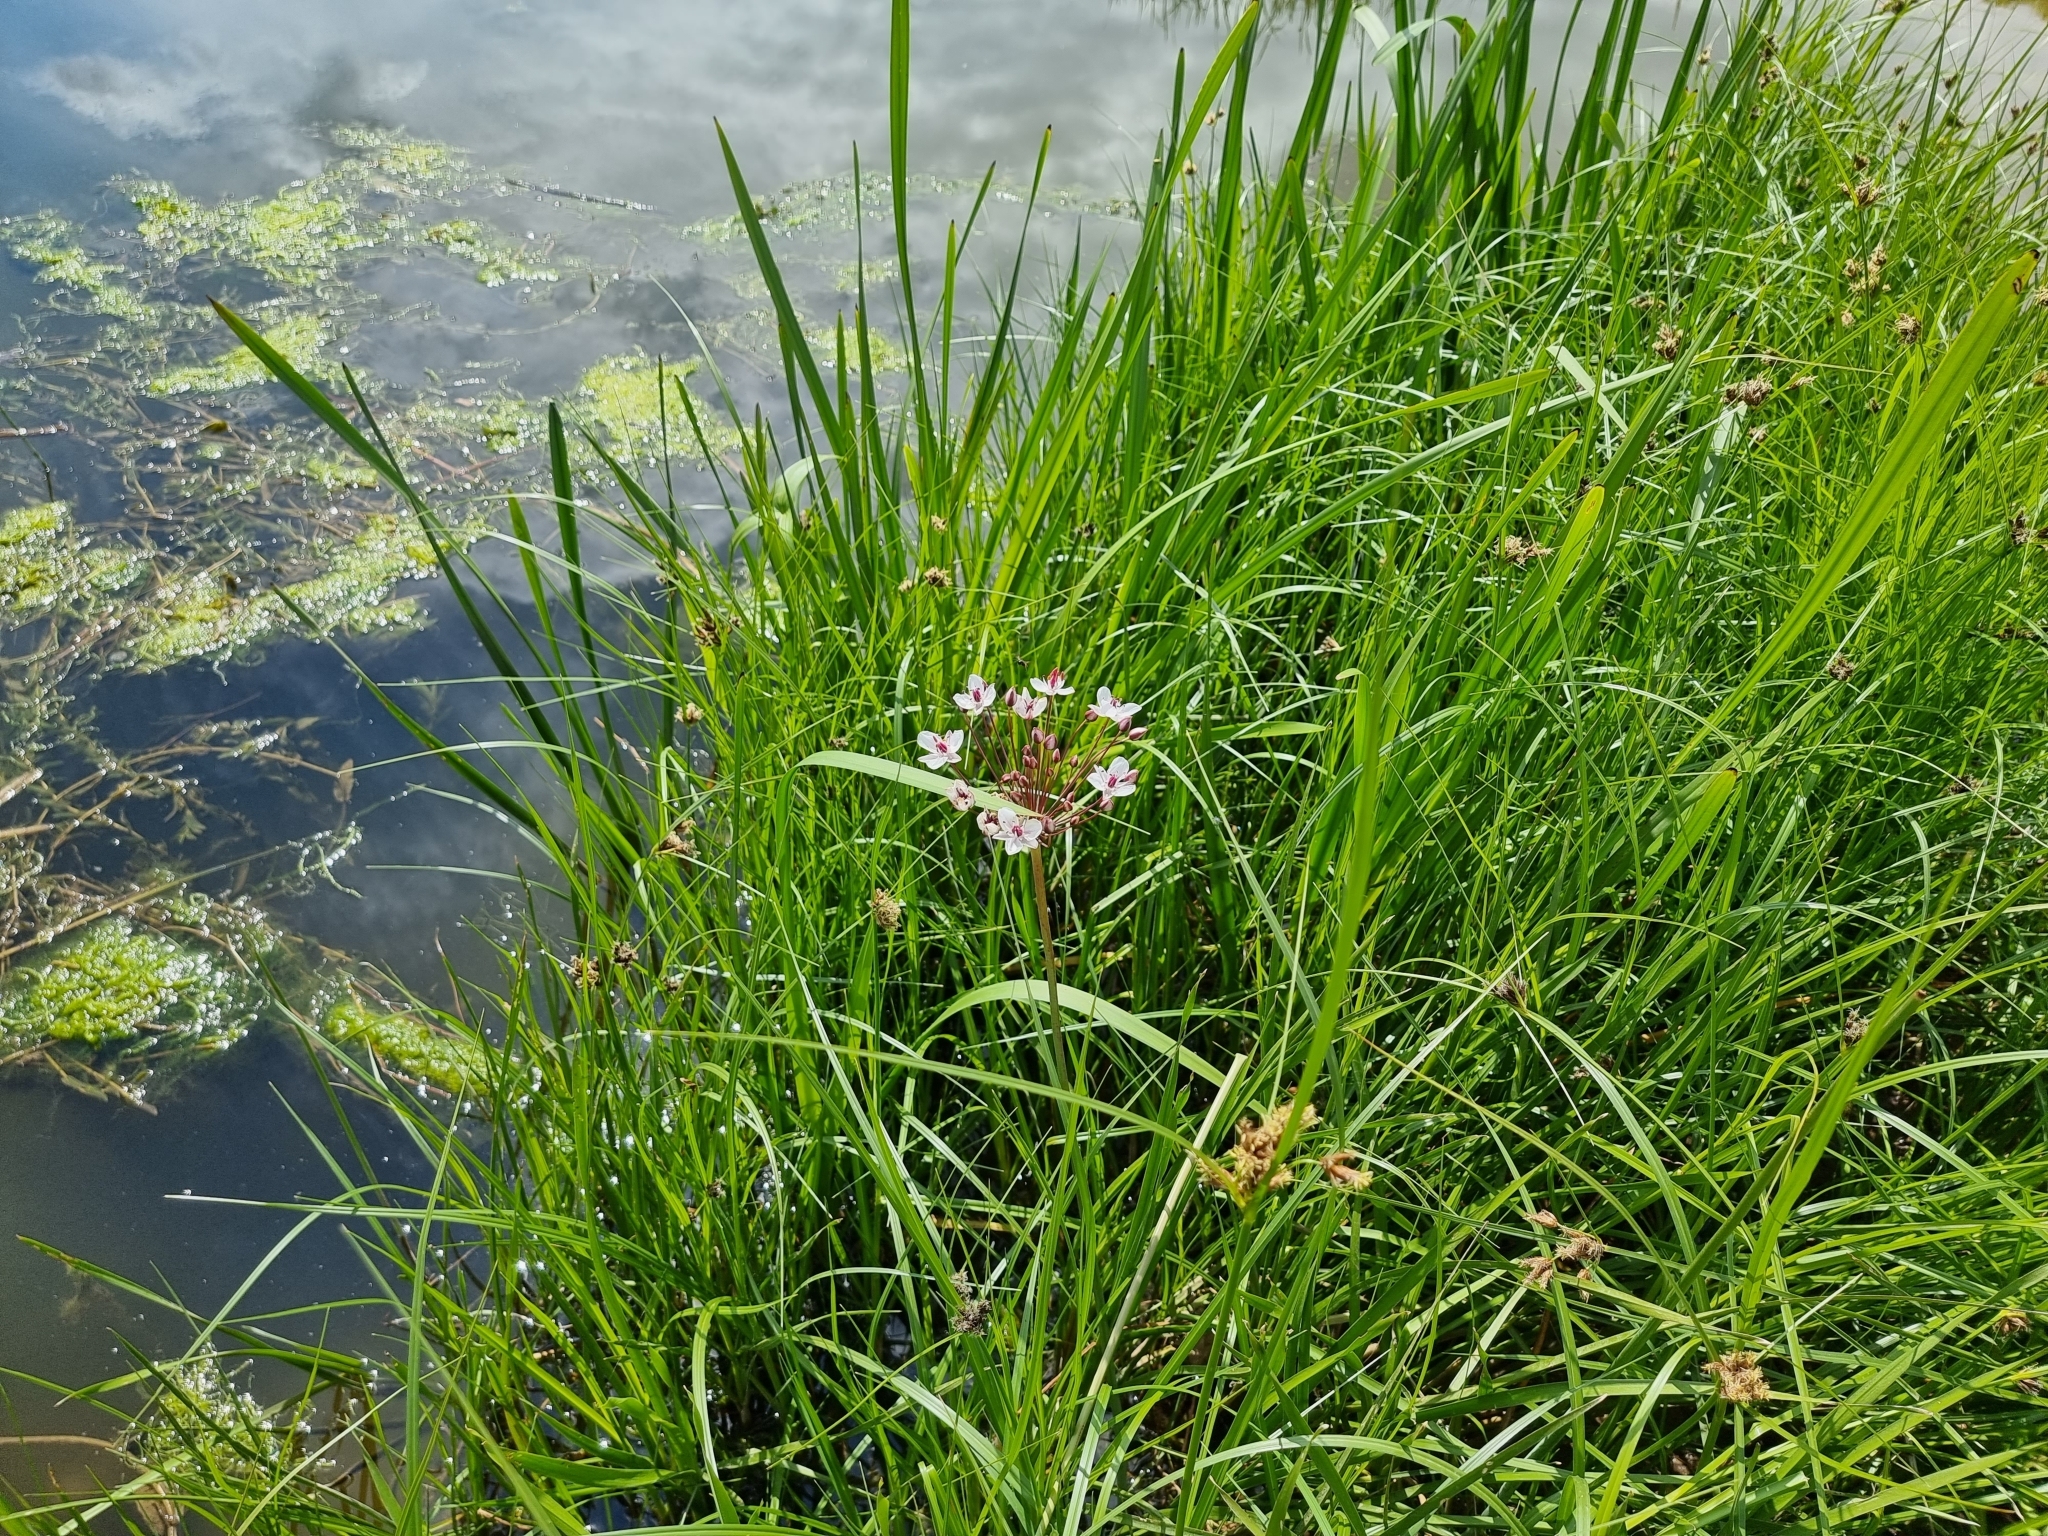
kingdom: Plantae
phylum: Tracheophyta
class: Liliopsida
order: Alismatales
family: Butomaceae
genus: Butomus
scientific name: Butomus umbellatus
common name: Flowering-rush
